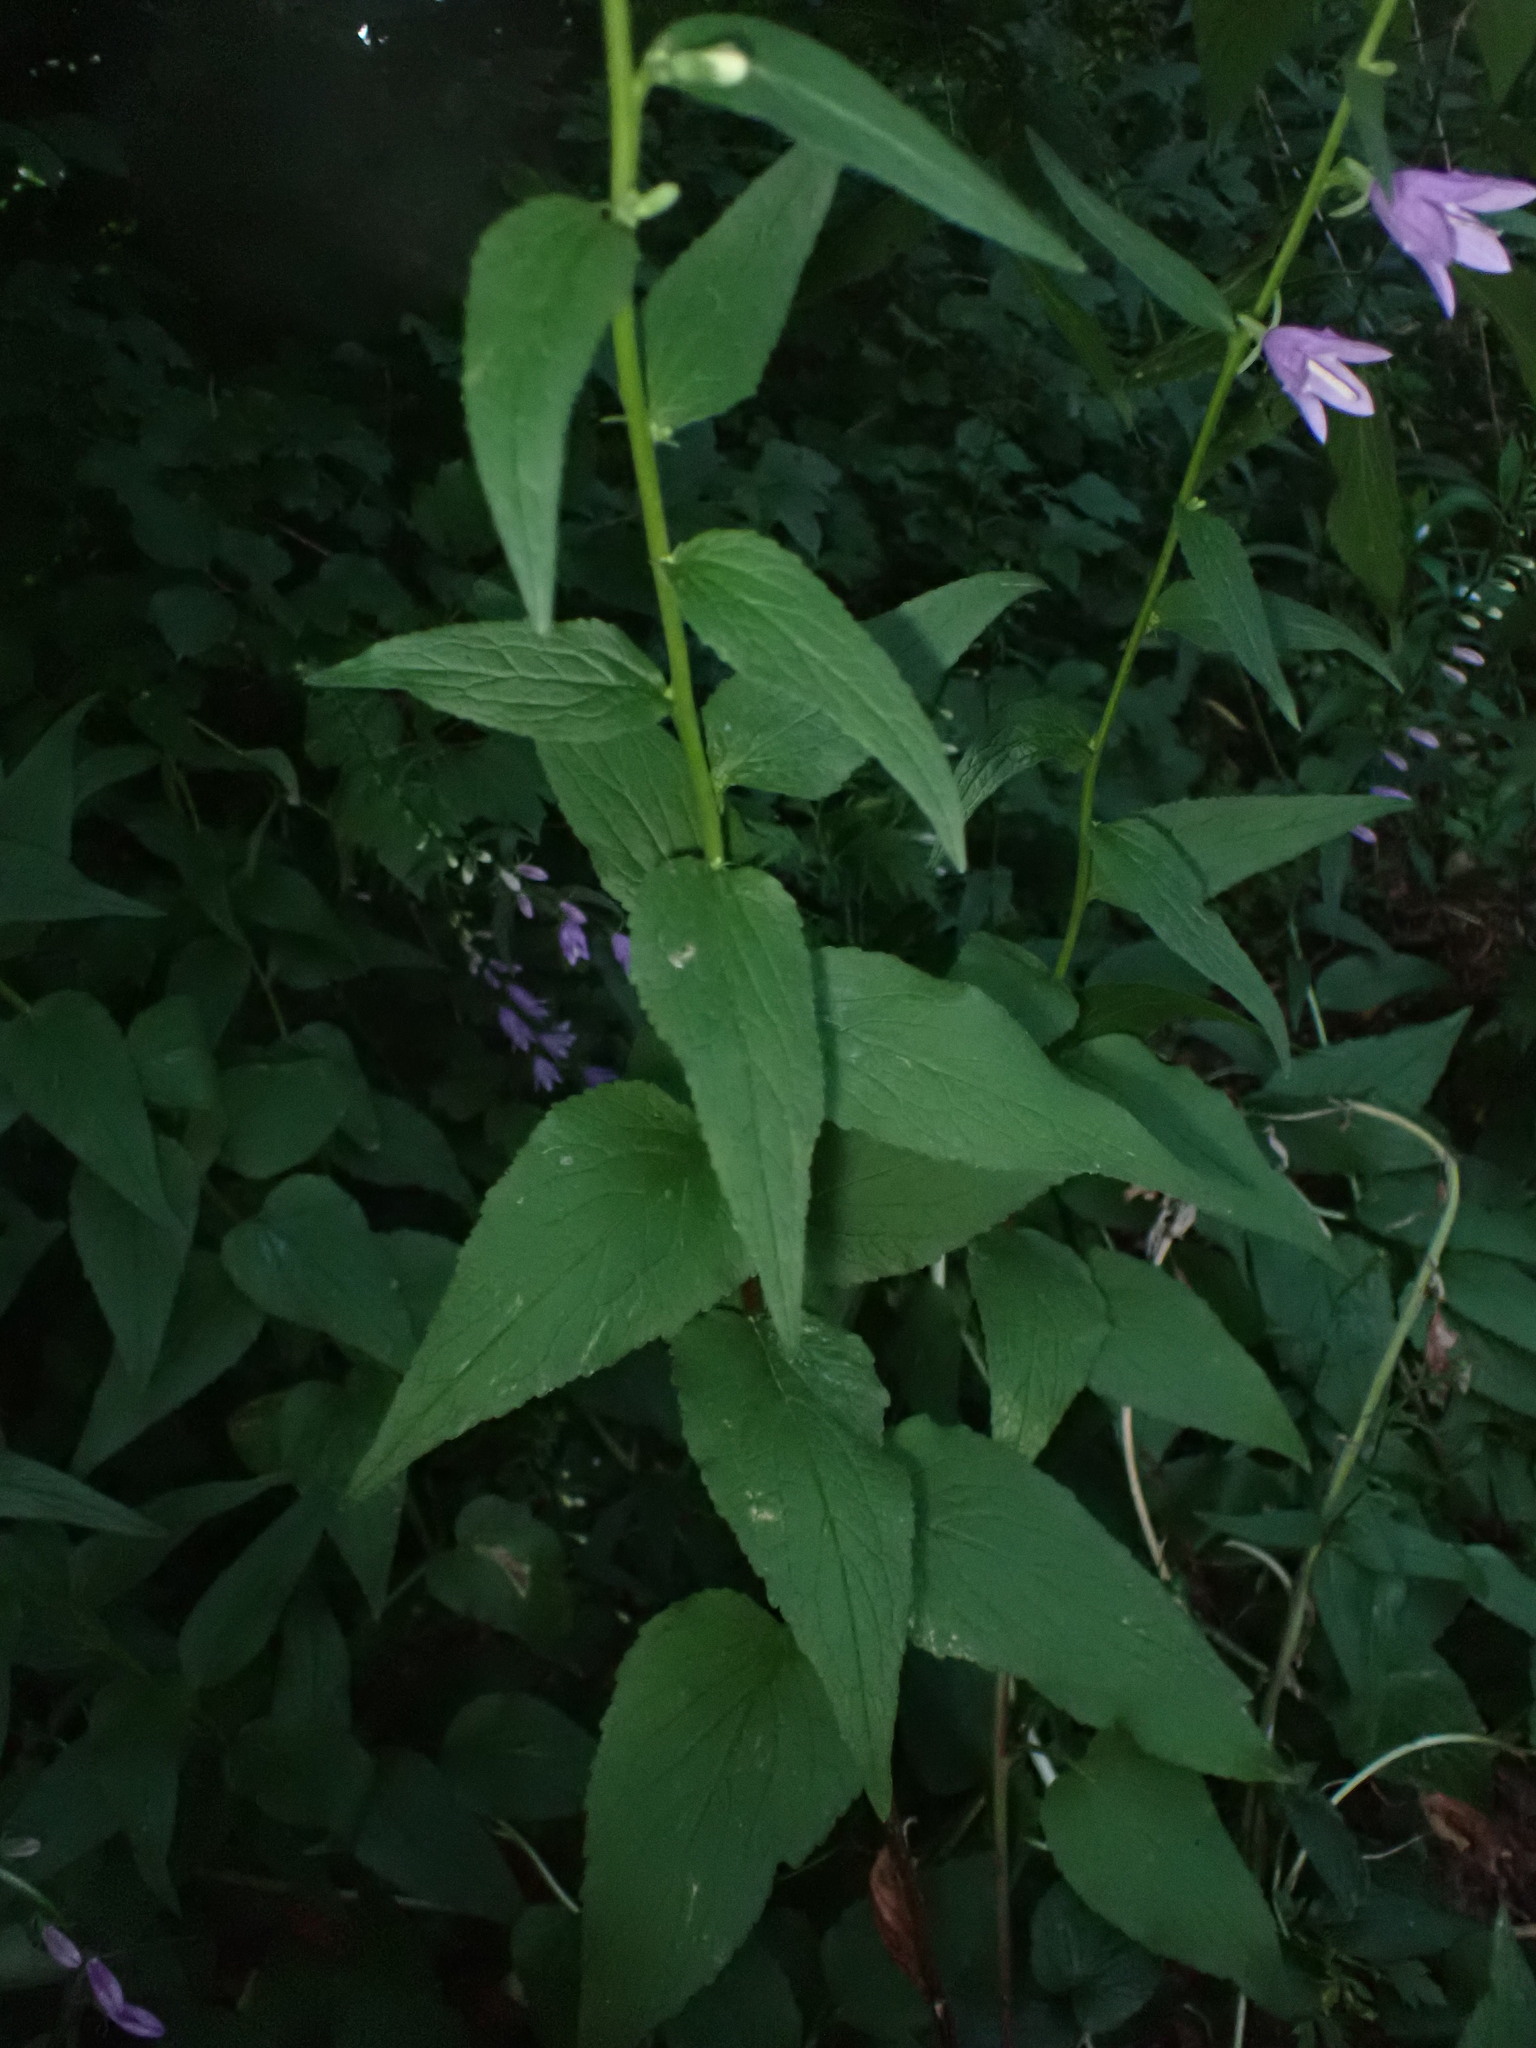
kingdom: Plantae
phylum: Tracheophyta
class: Magnoliopsida
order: Asterales
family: Campanulaceae
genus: Campanula
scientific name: Campanula rapunculoides
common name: Creeping bellflower
